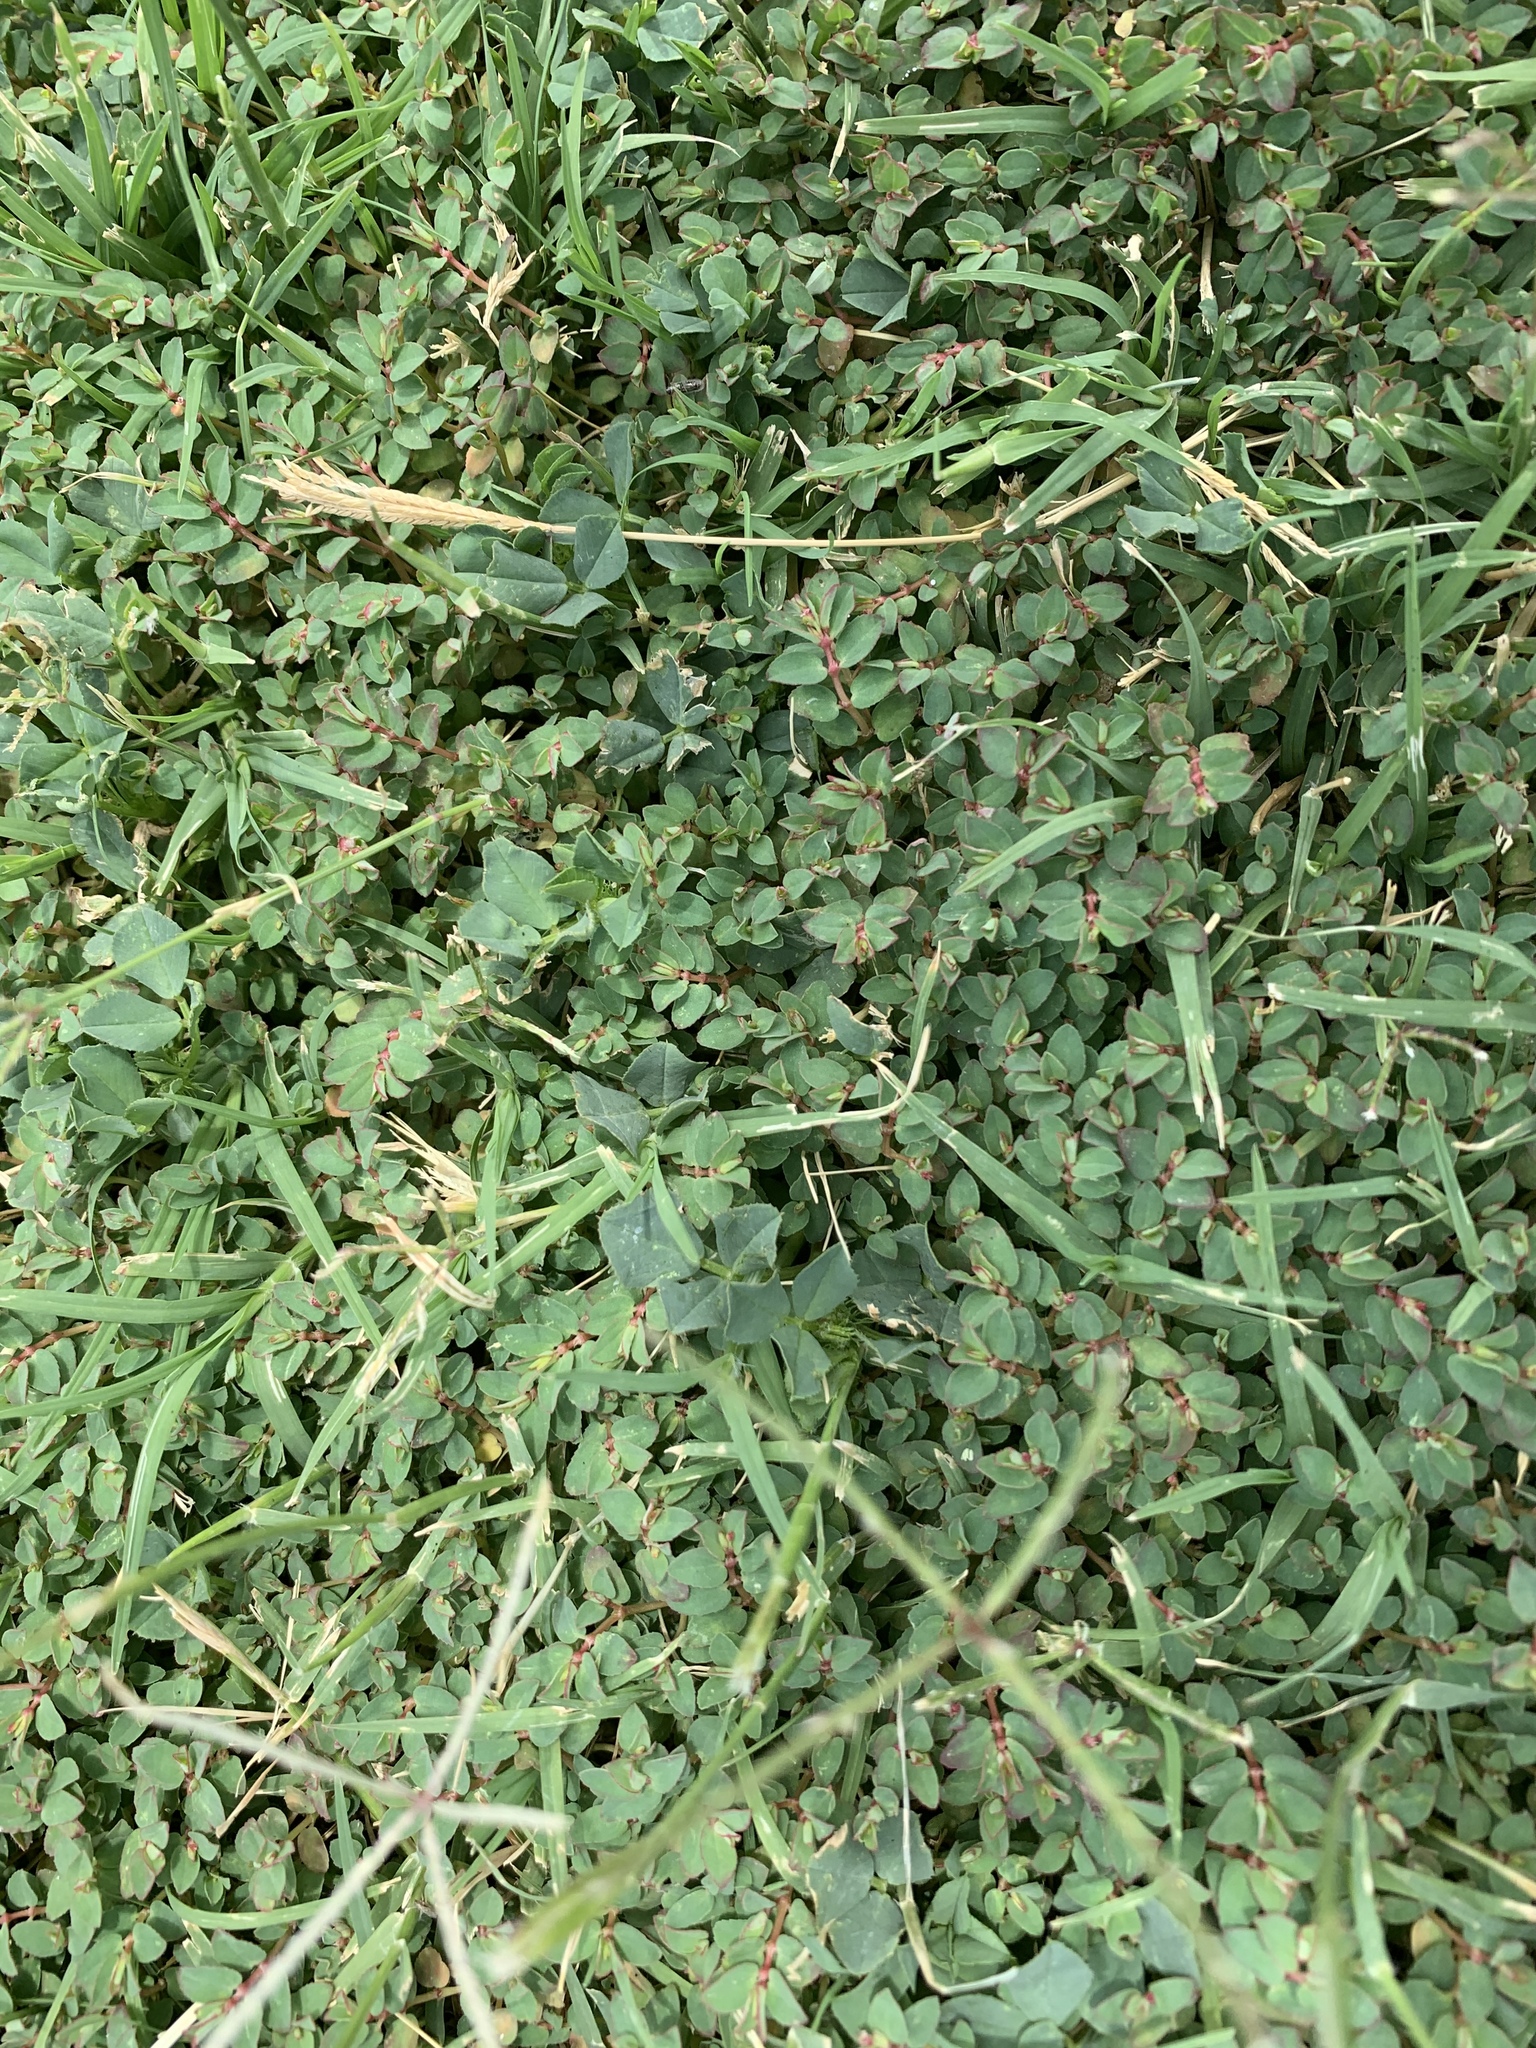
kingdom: Plantae
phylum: Tracheophyta
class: Magnoliopsida
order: Malpighiales
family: Euphorbiaceae
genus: Euphorbia
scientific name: Euphorbia vermiculata
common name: Hairy spurge
